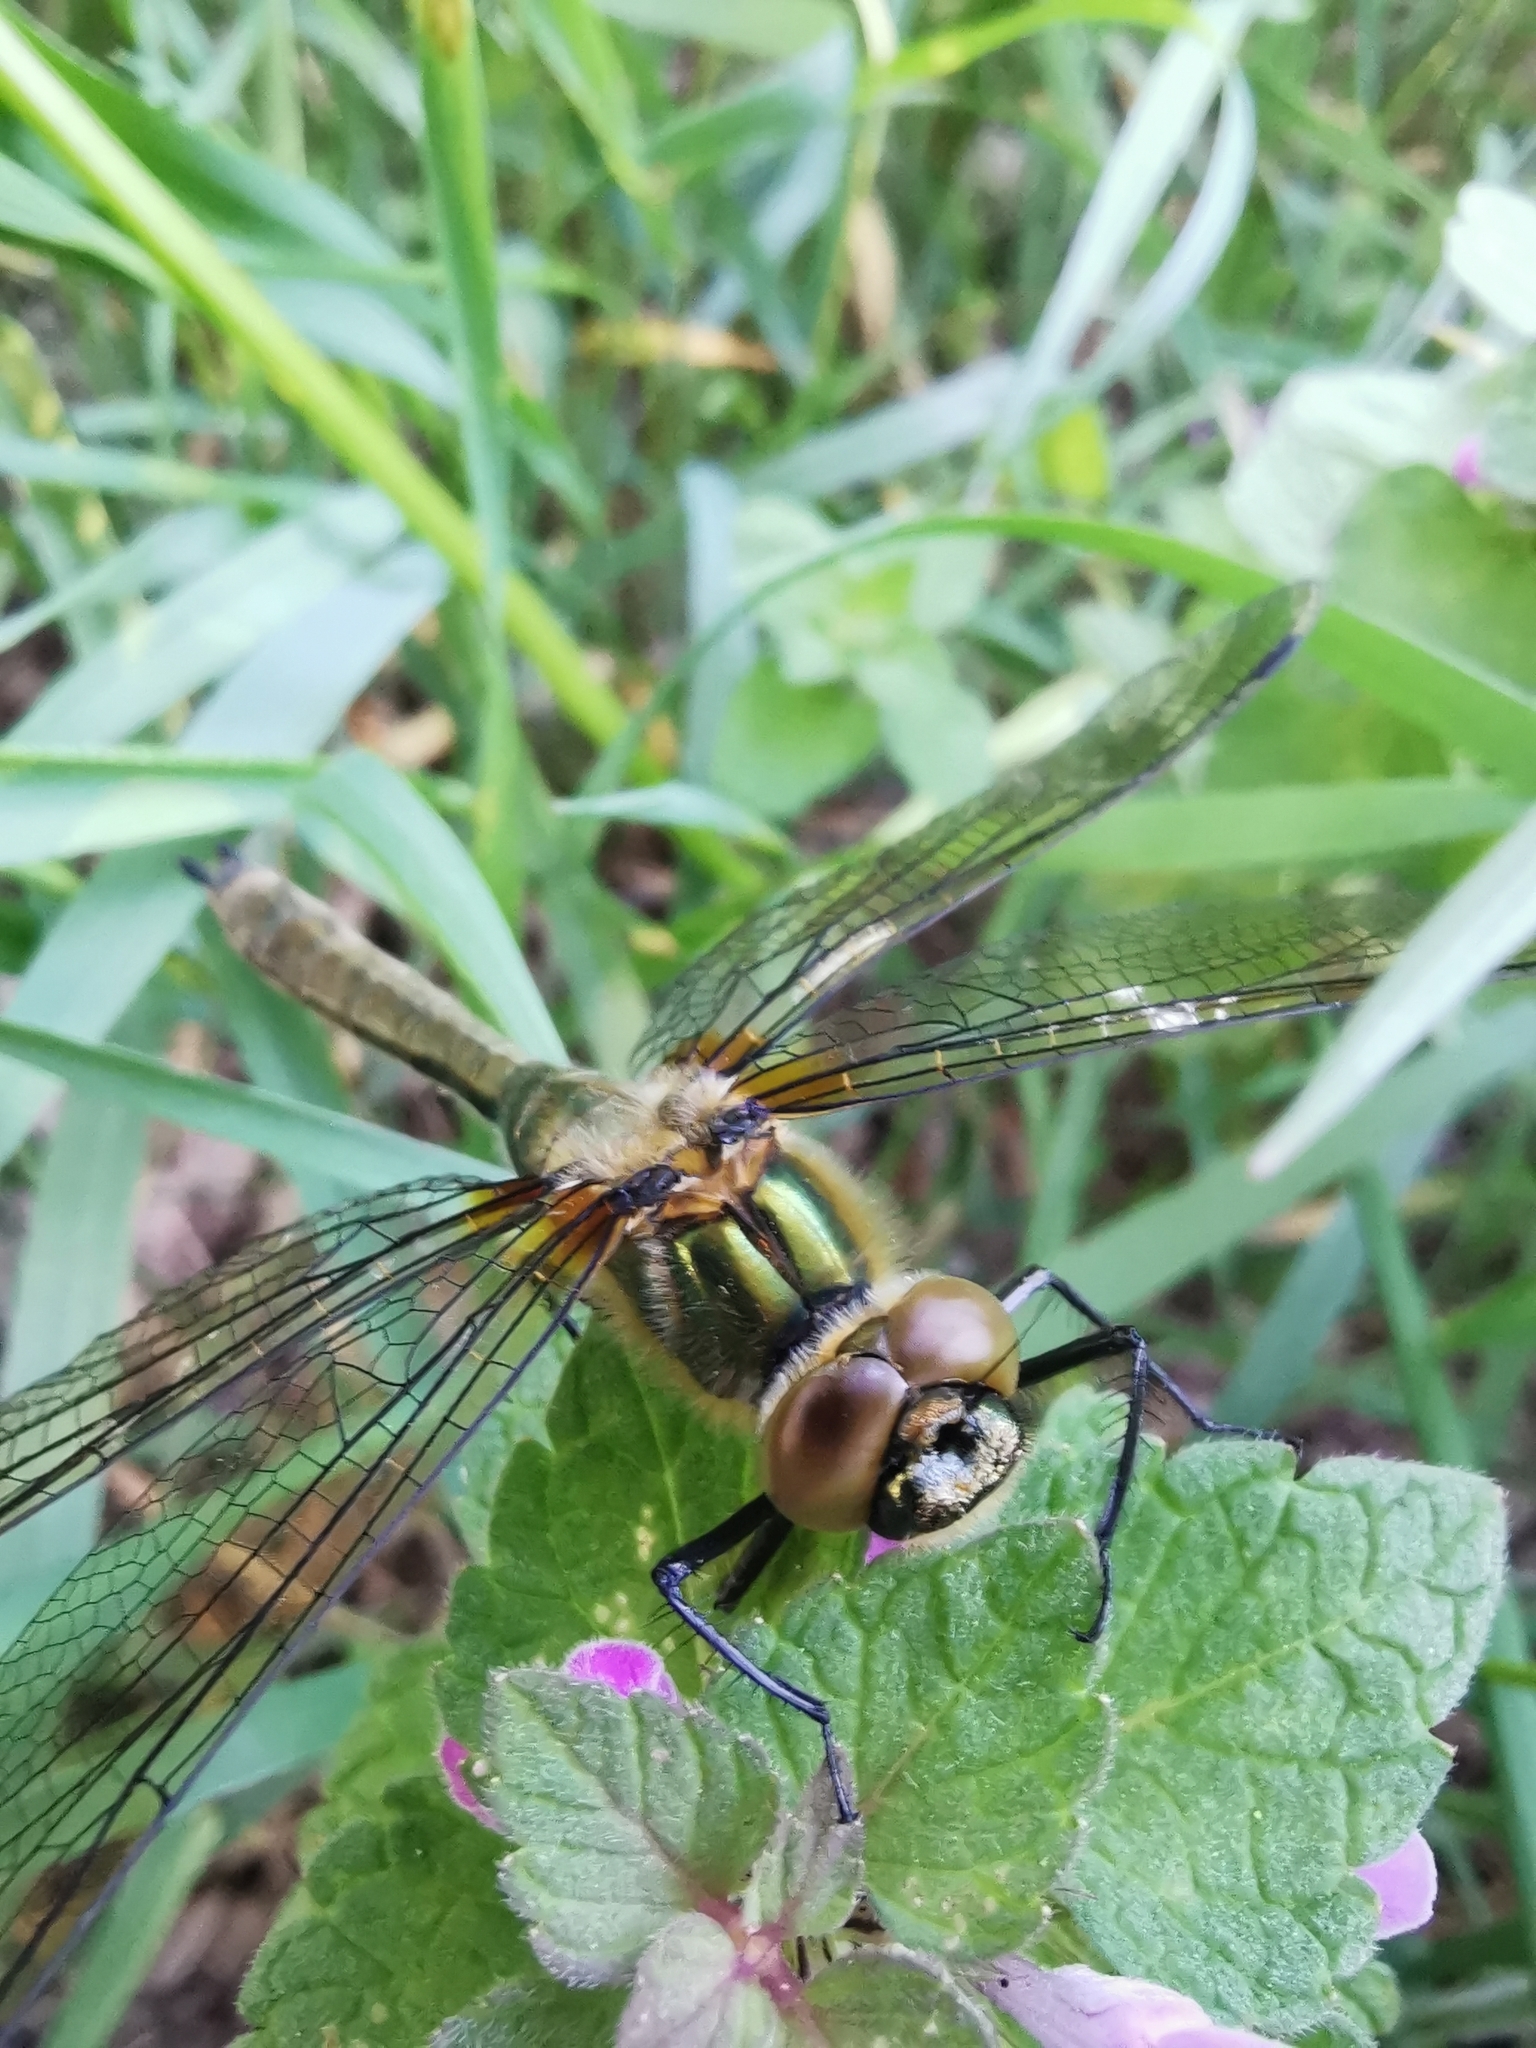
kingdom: Animalia
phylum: Arthropoda
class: Insecta
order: Odonata
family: Corduliidae
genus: Cordulia
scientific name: Cordulia aenea
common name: Downy emerald
